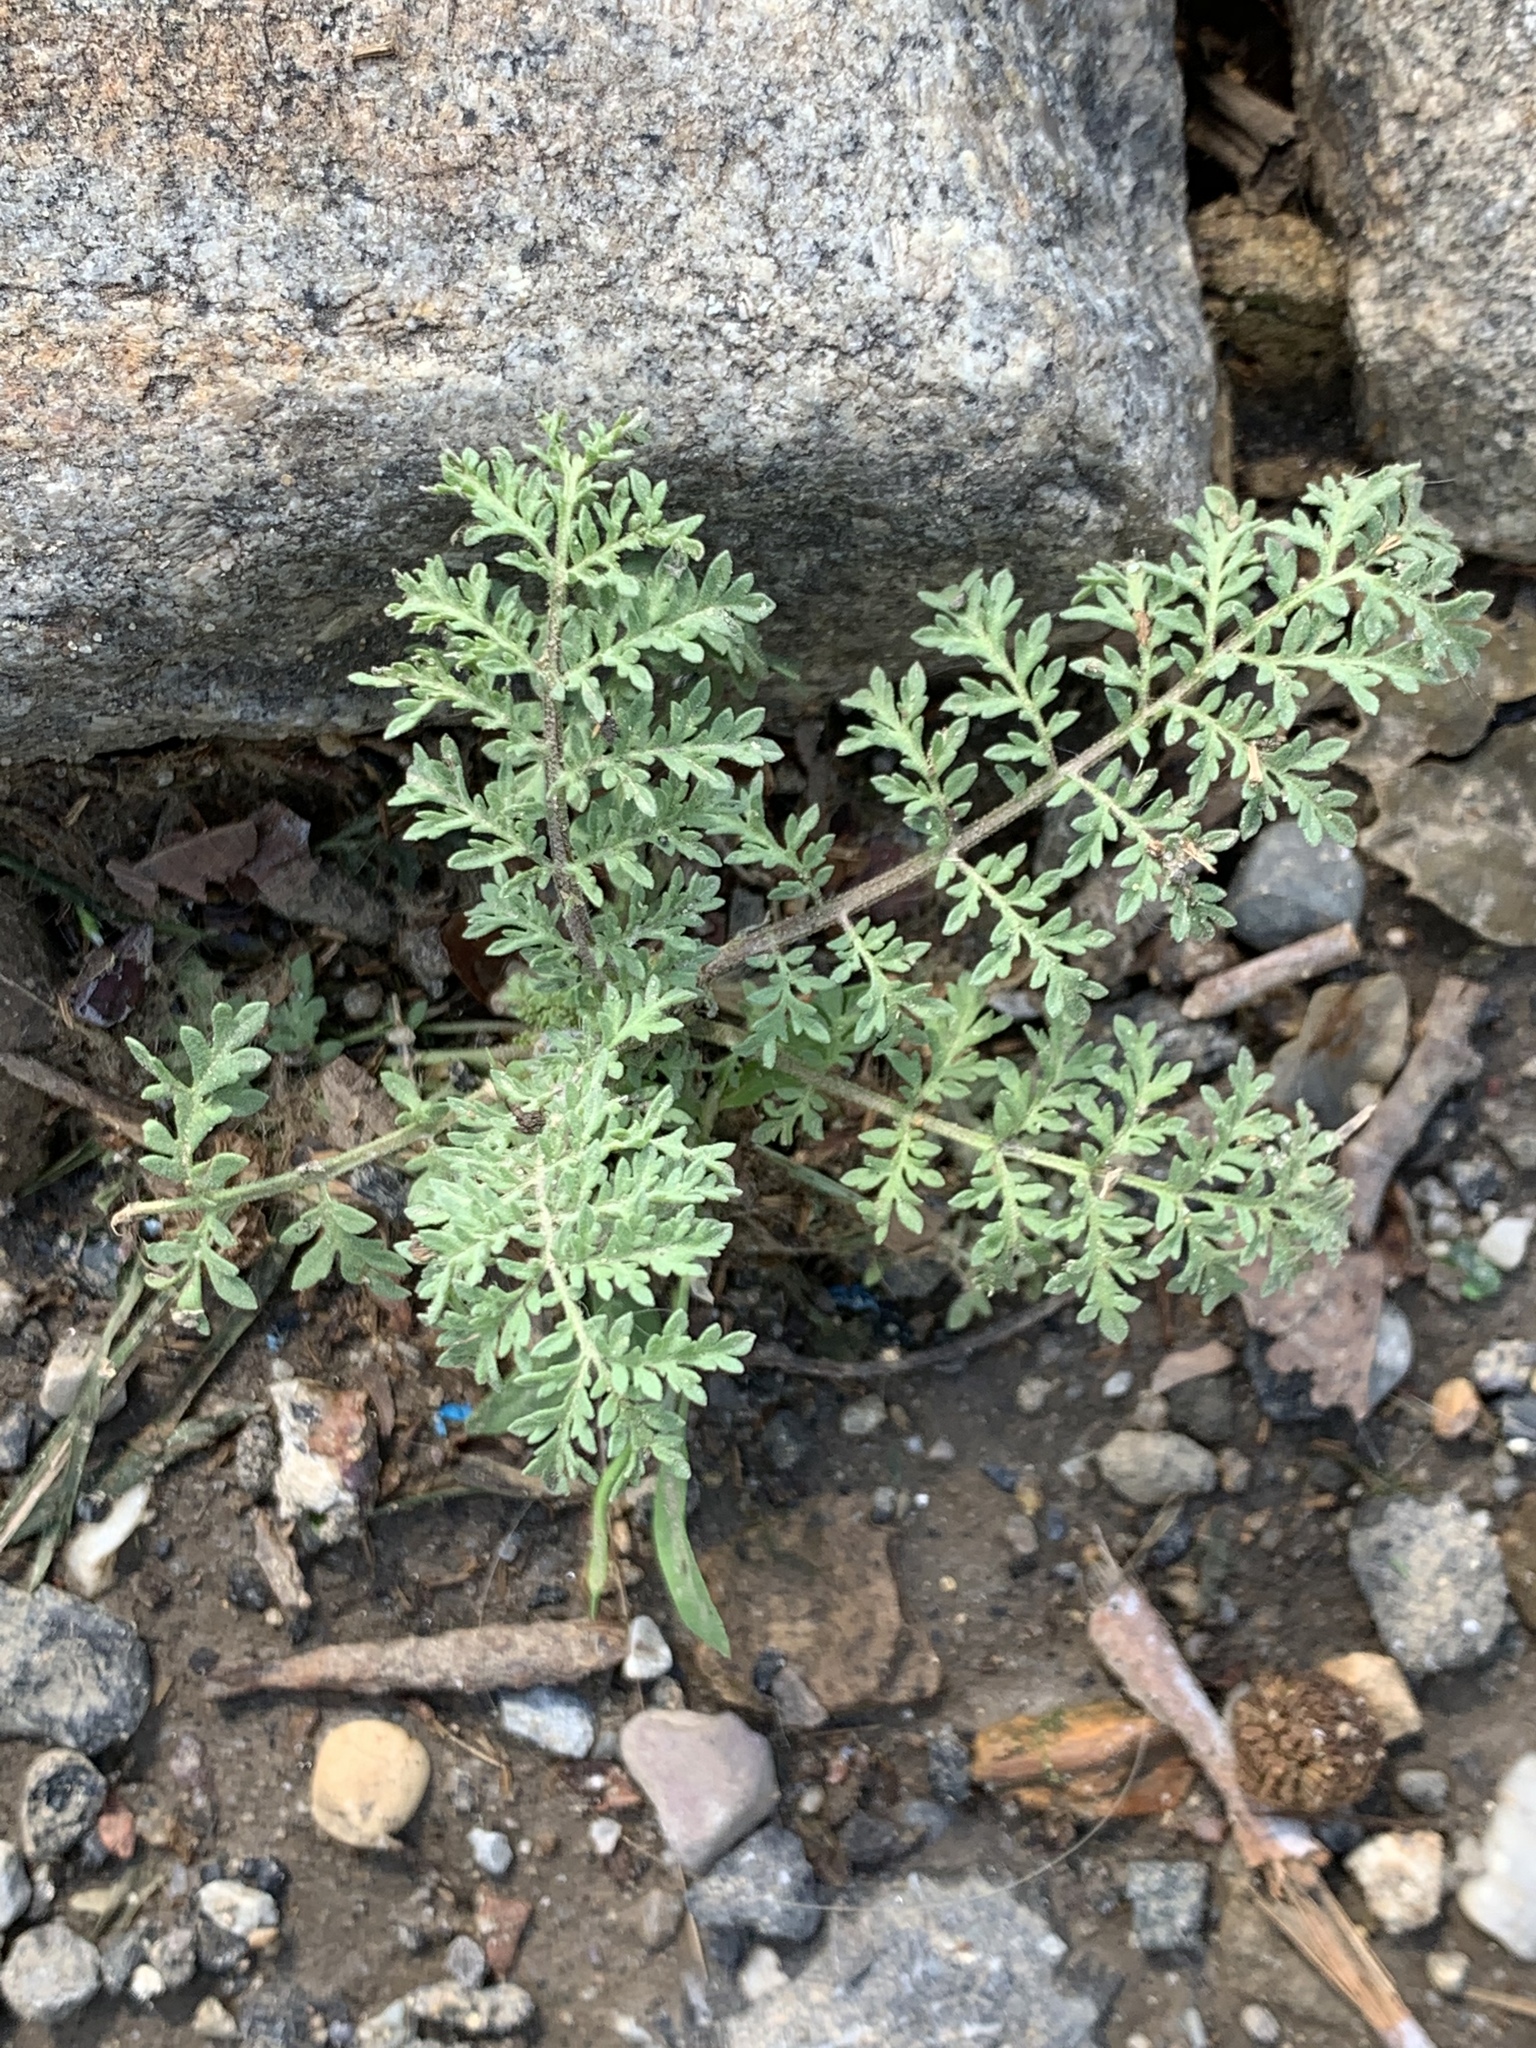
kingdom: Plantae
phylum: Tracheophyta
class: Magnoliopsida
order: Brassicales
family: Brassicaceae
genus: Descurainia
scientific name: Descurainia sophia
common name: Flixweed
